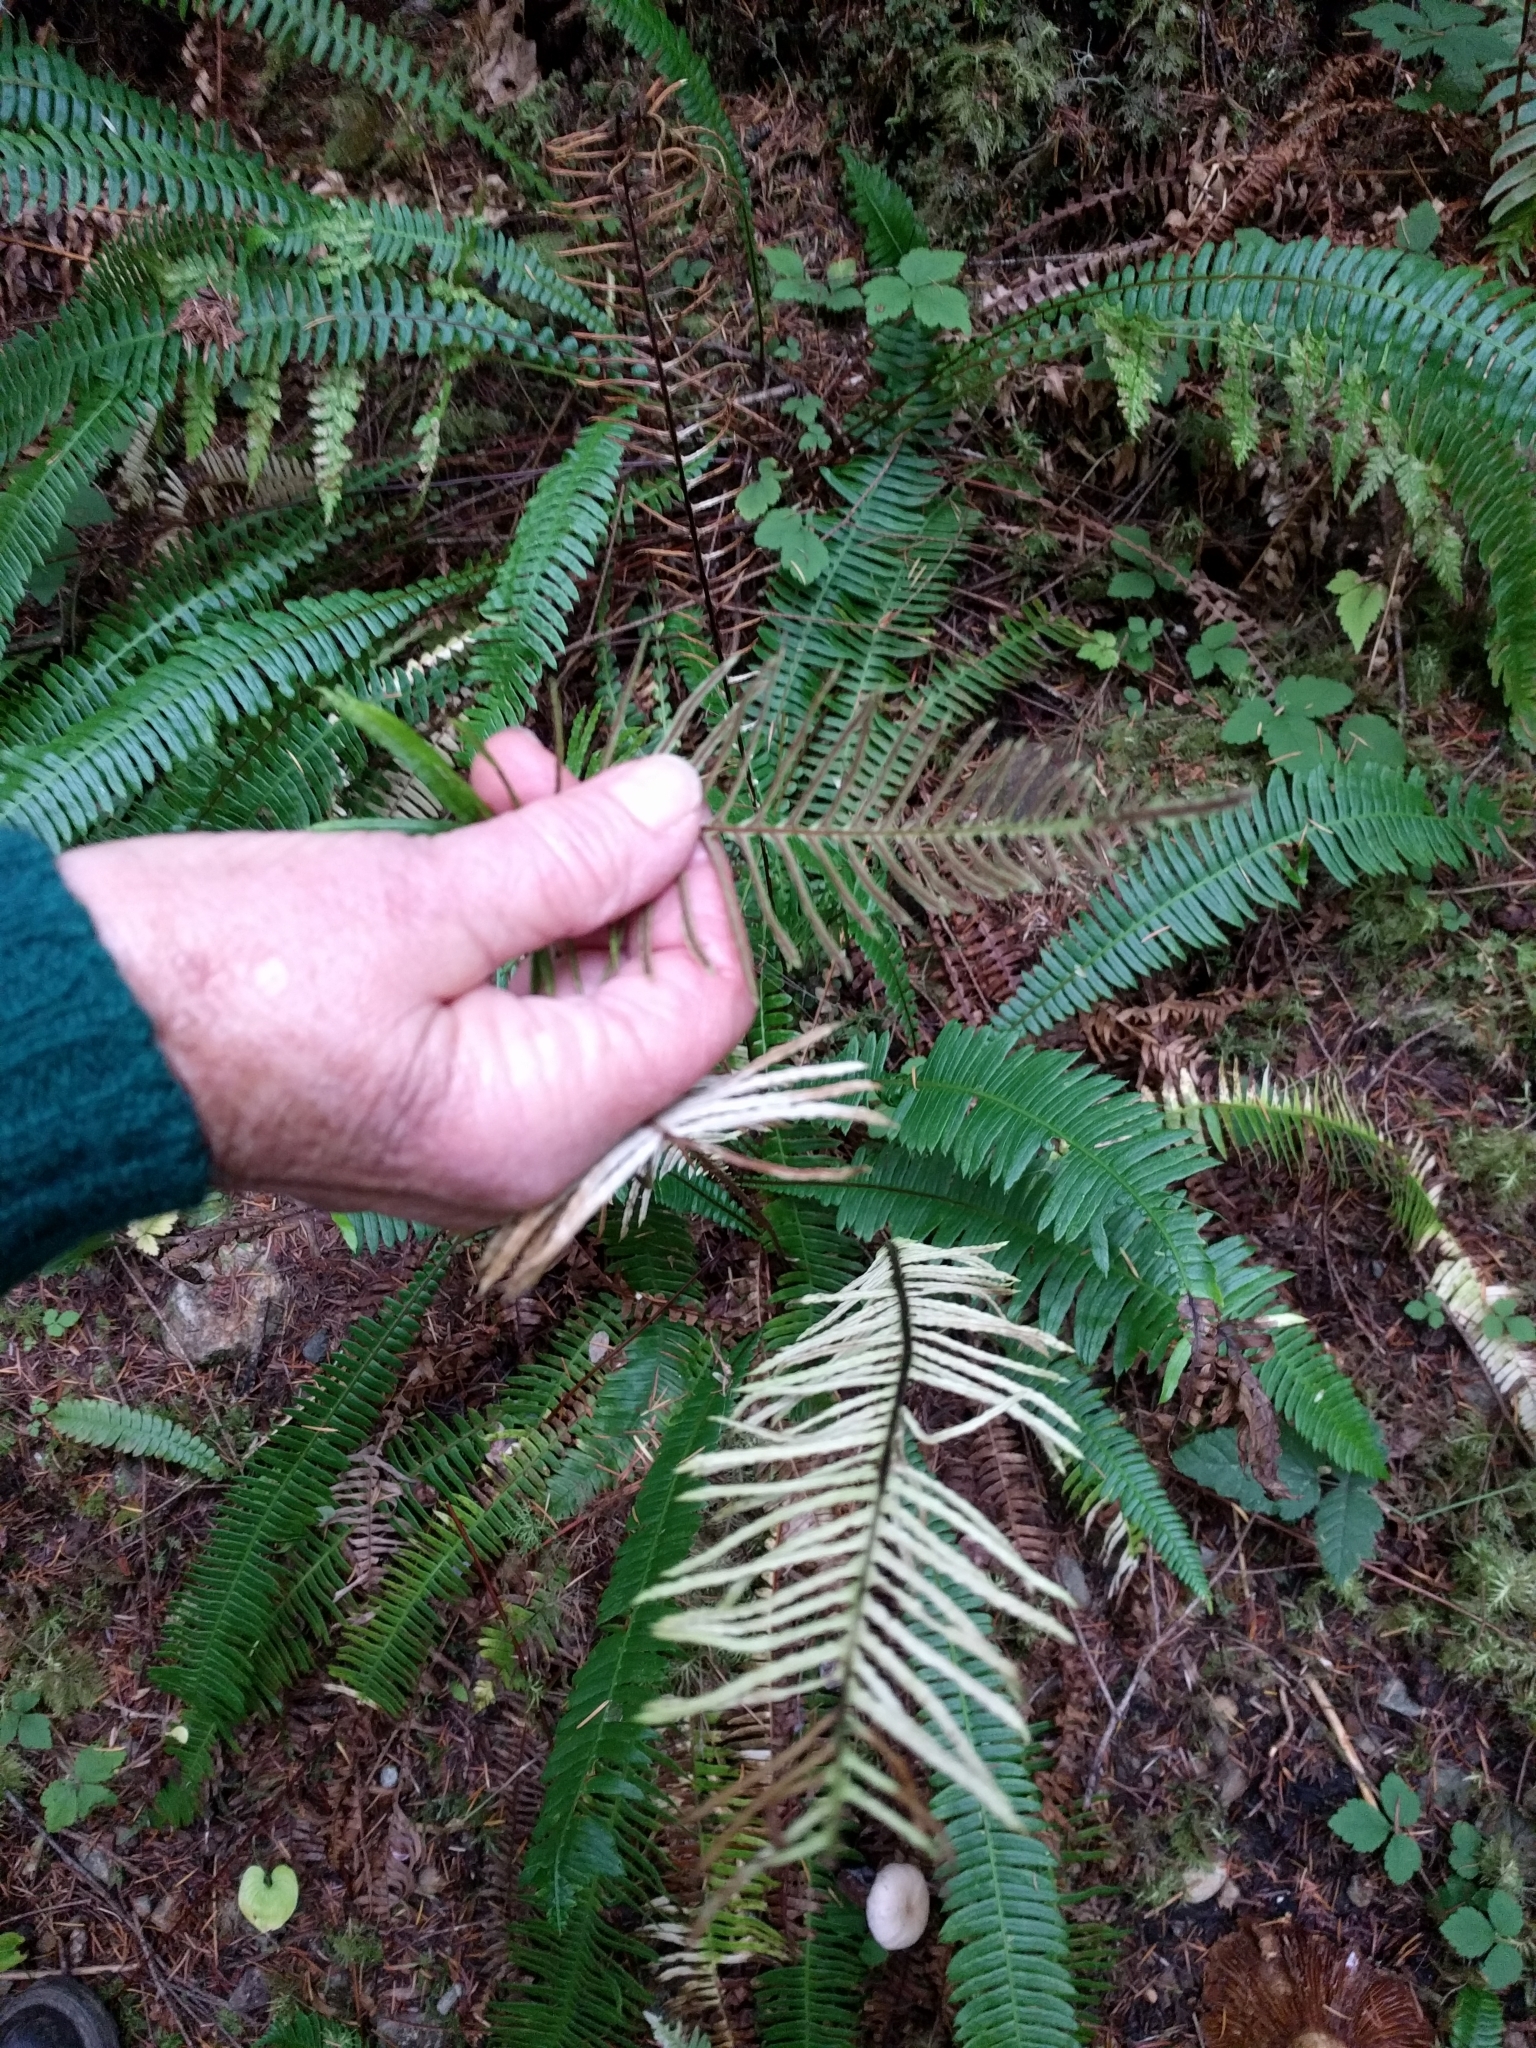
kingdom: Plantae
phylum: Tracheophyta
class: Polypodiopsida
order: Polypodiales
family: Blechnaceae
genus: Struthiopteris
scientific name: Struthiopteris spicant
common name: Deer fern
